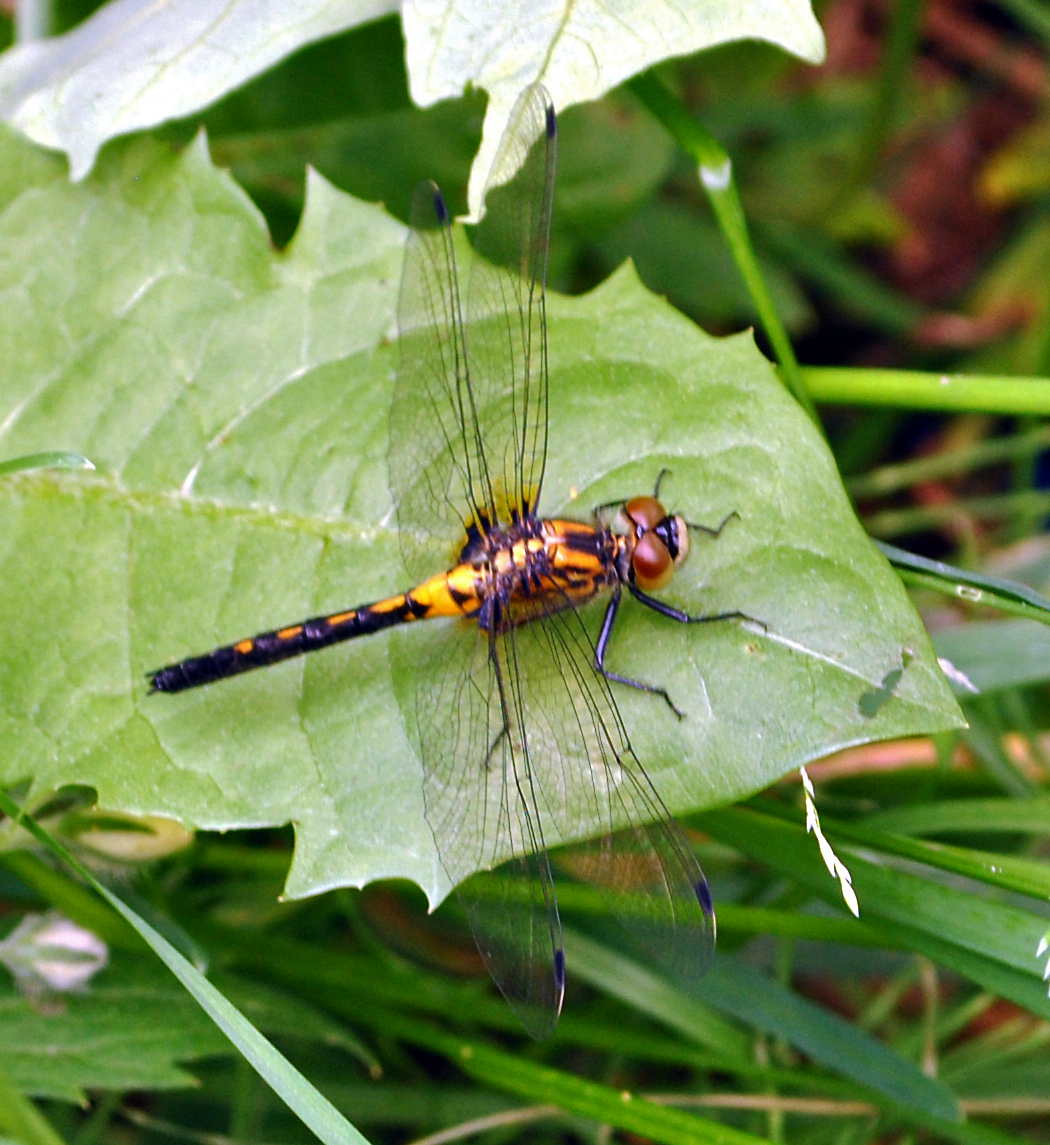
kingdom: Animalia
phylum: Arthropoda
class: Insecta
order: Odonata
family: Libellulidae
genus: Leucorrhinia
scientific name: Leucorrhinia proxima
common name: Belted whiteface
